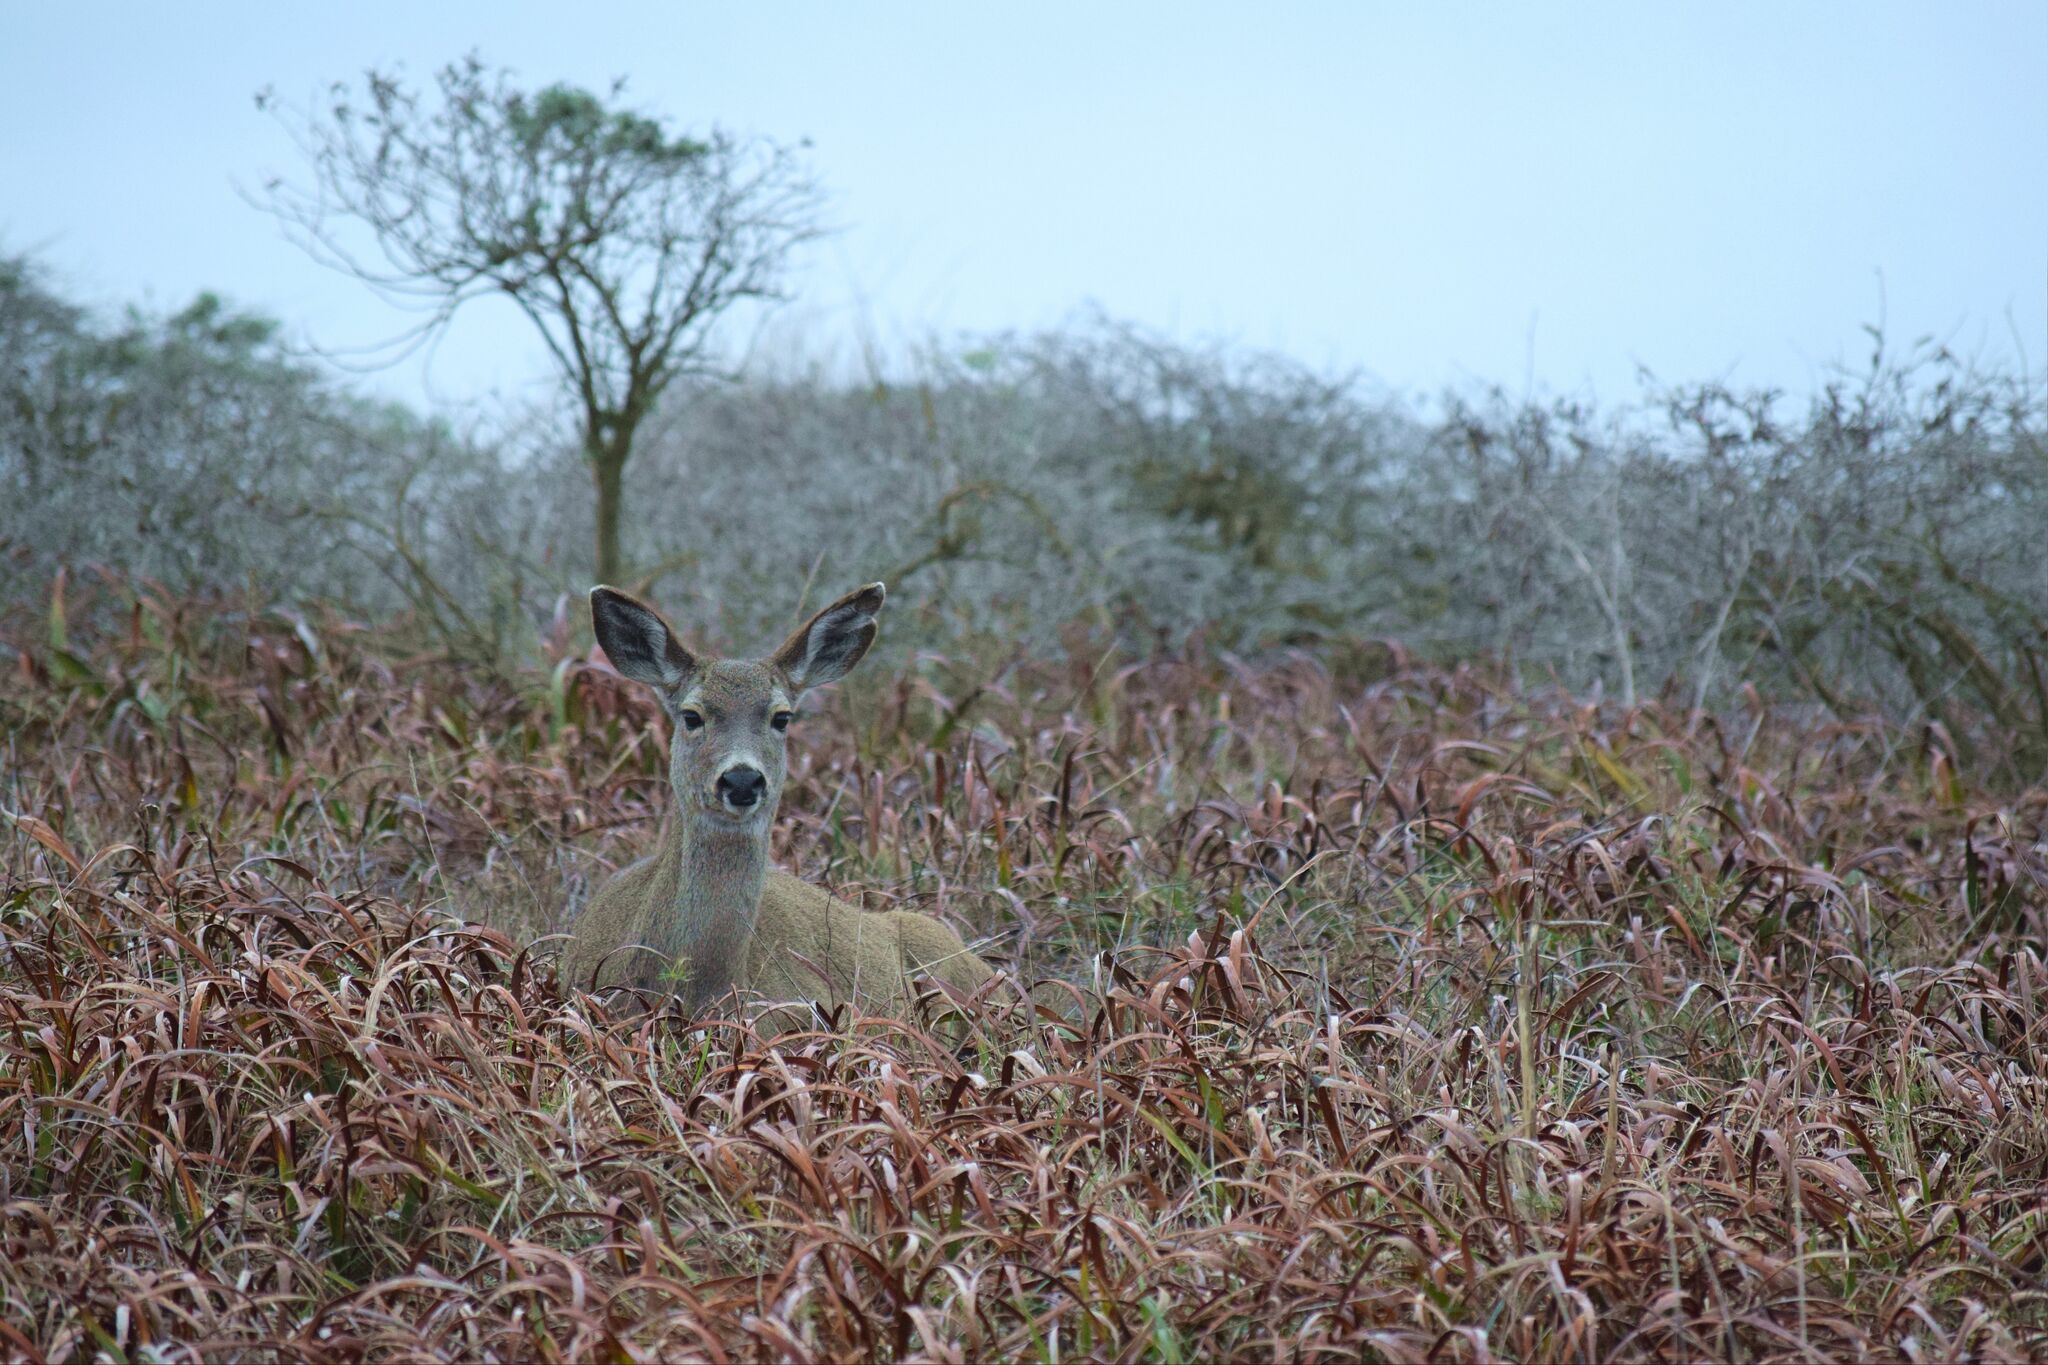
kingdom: Animalia
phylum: Chordata
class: Mammalia
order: Artiodactyla
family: Cervidae
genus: Odocoileus
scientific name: Odocoileus hemionus
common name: Mule deer
